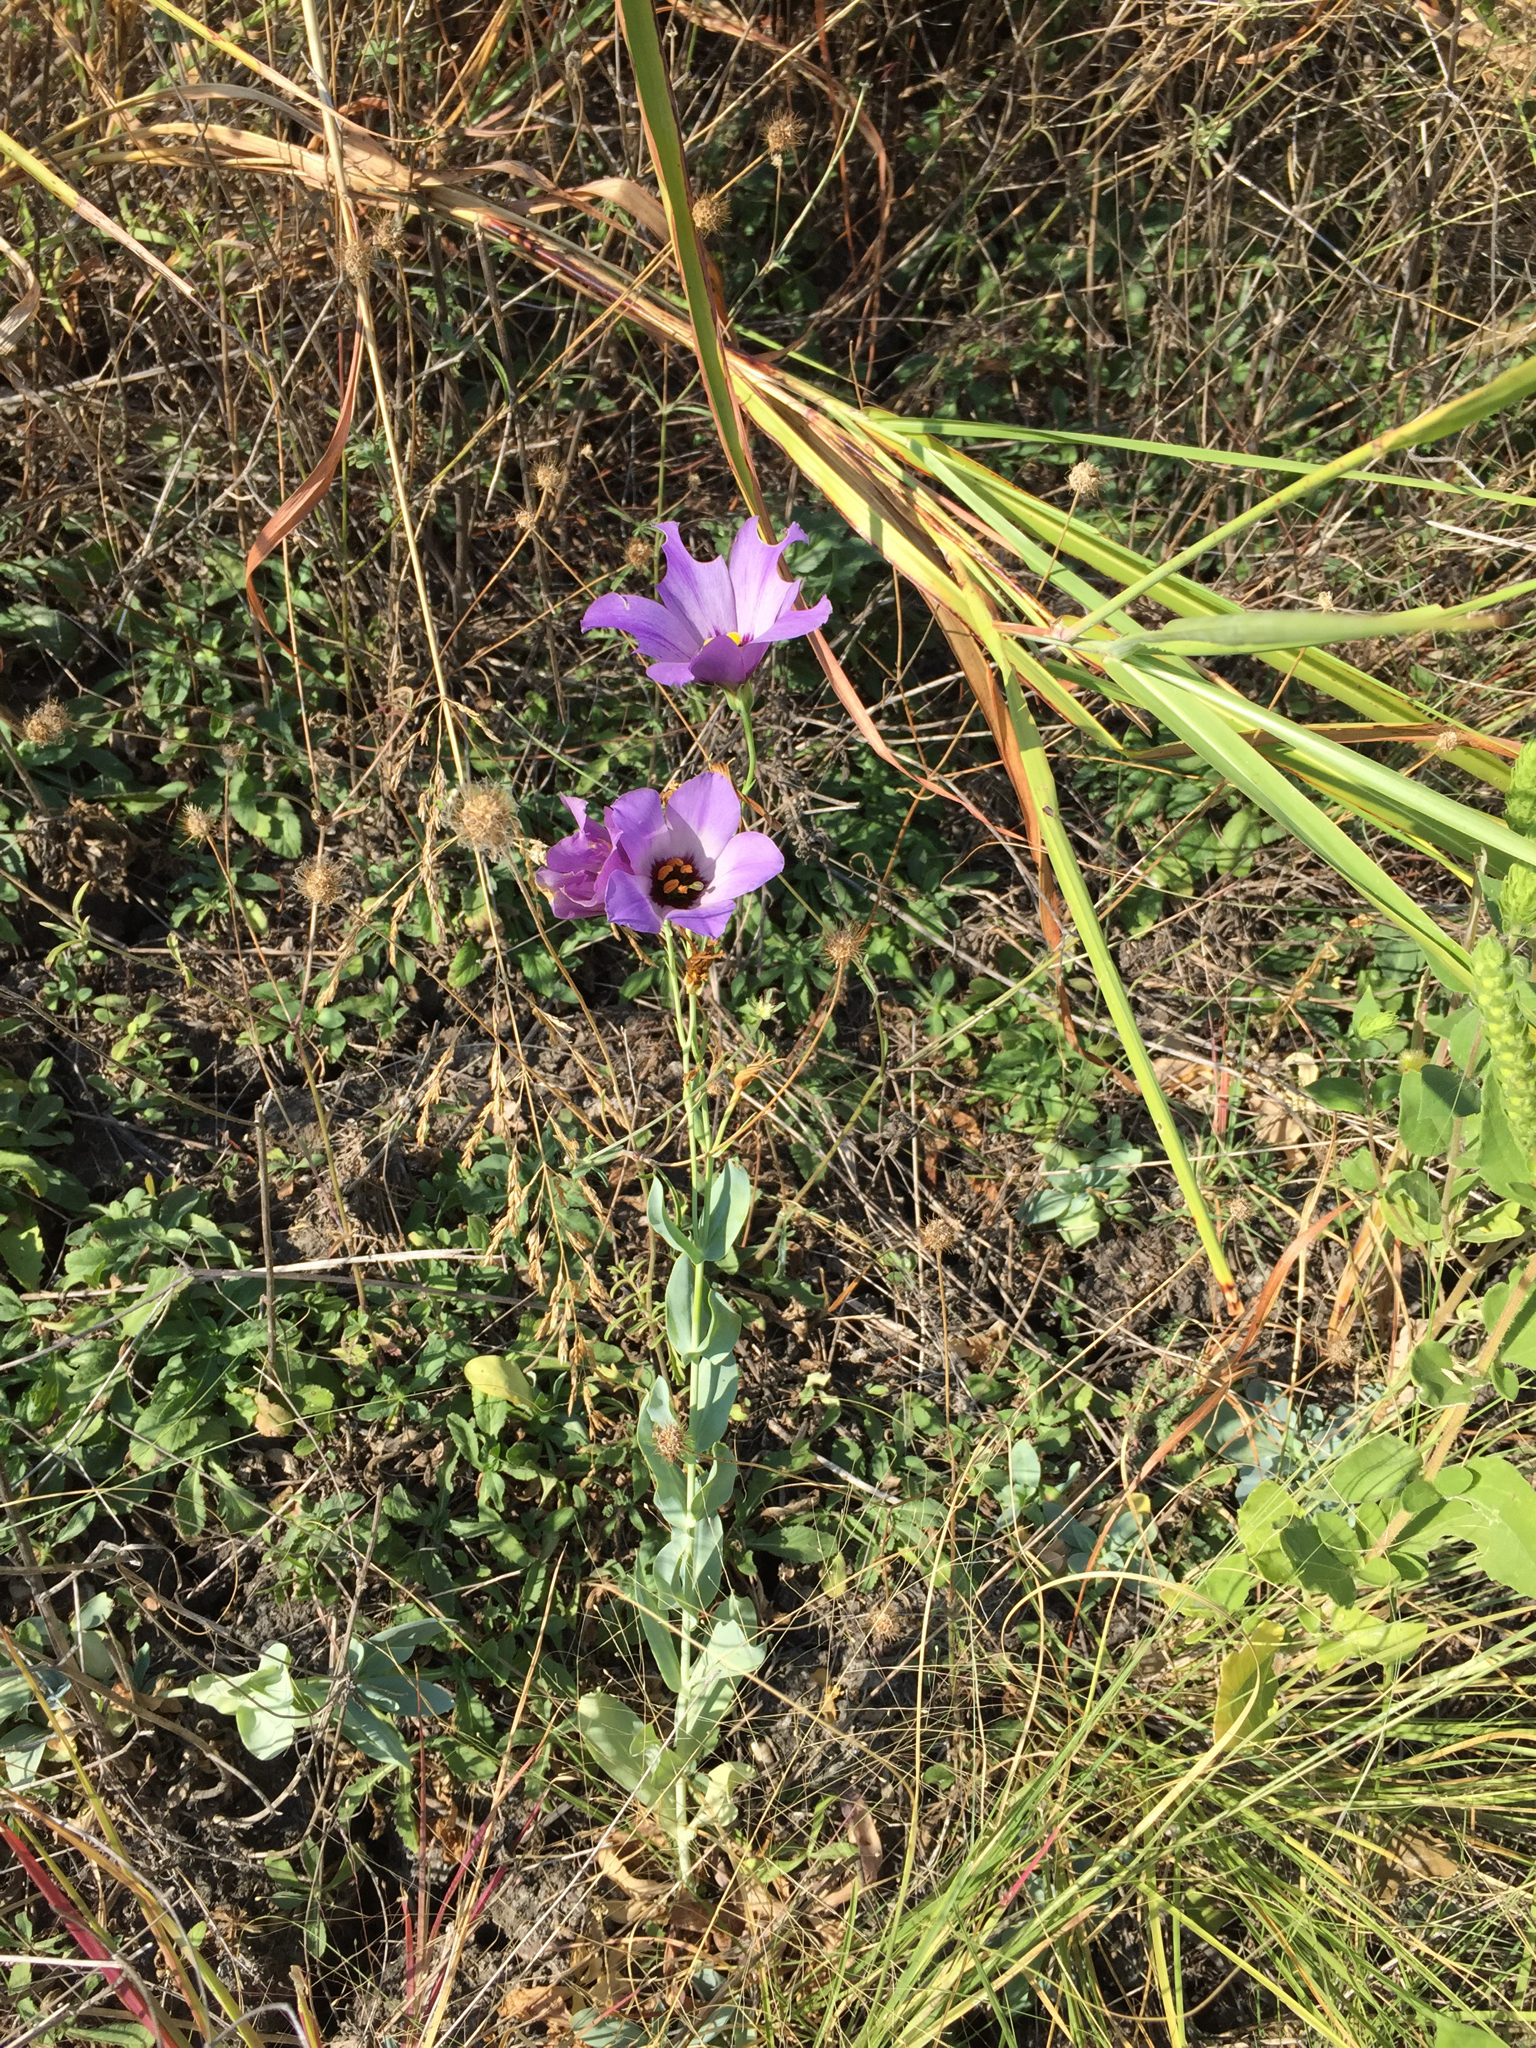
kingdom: Plantae
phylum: Tracheophyta
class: Magnoliopsida
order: Gentianales
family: Gentianaceae
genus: Eustoma
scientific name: Eustoma russellianum
